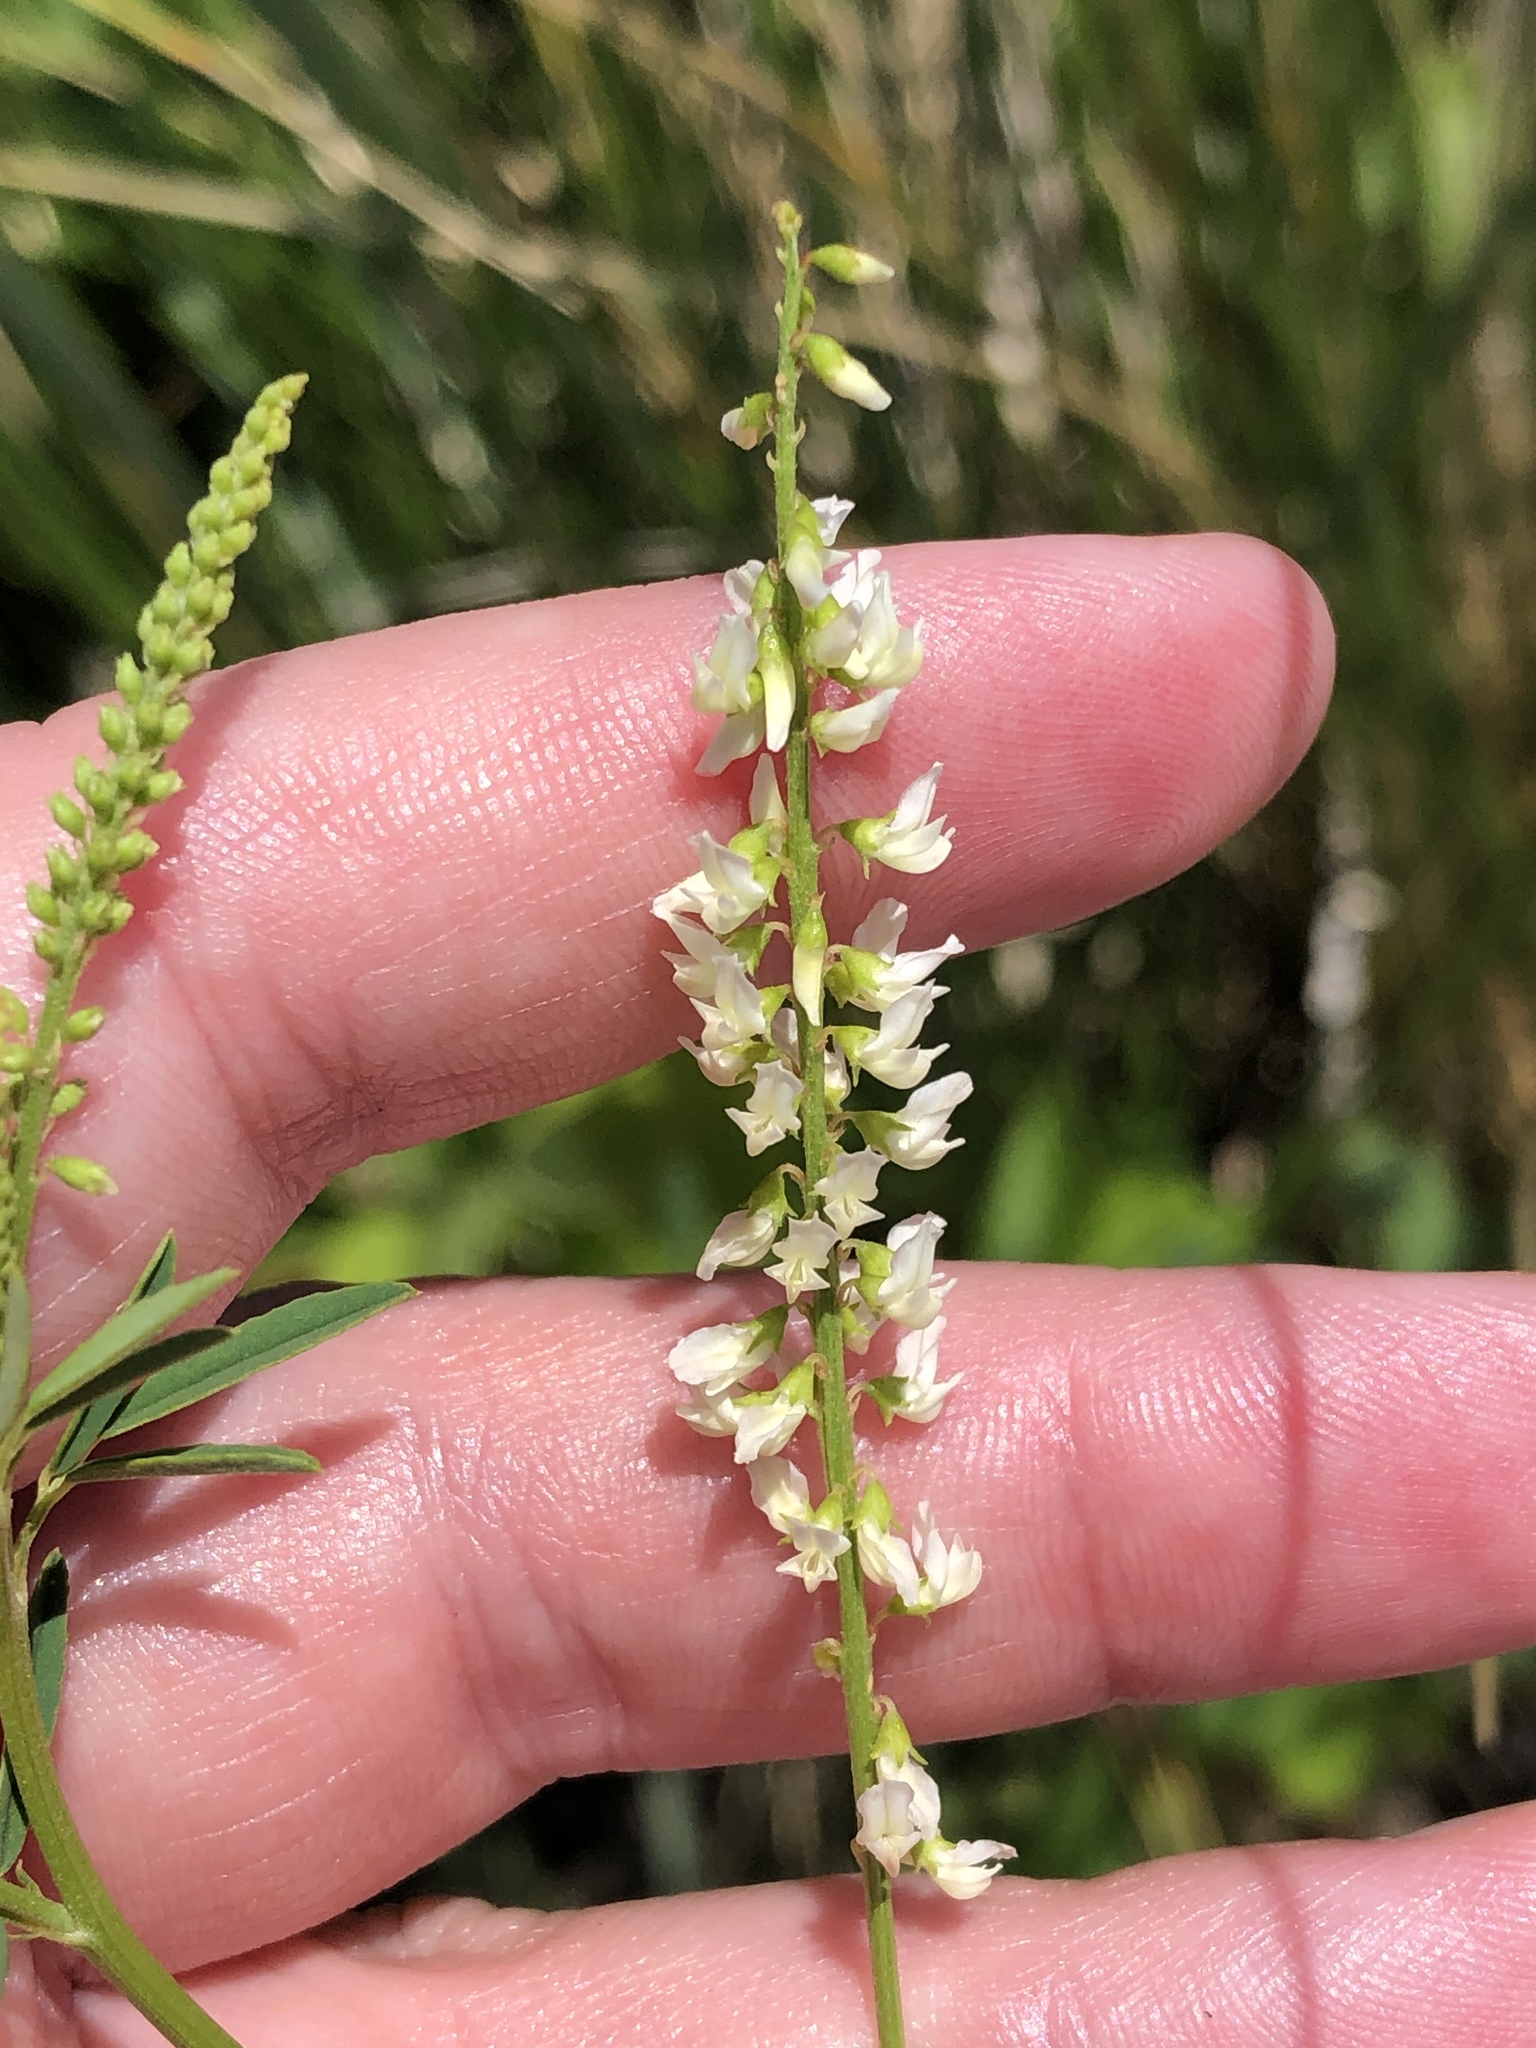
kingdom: Plantae
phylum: Tracheophyta
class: Magnoliopsida
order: Fabales
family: Fabaceae
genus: Melilotus
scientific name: Melilotus albus
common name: White melilot
